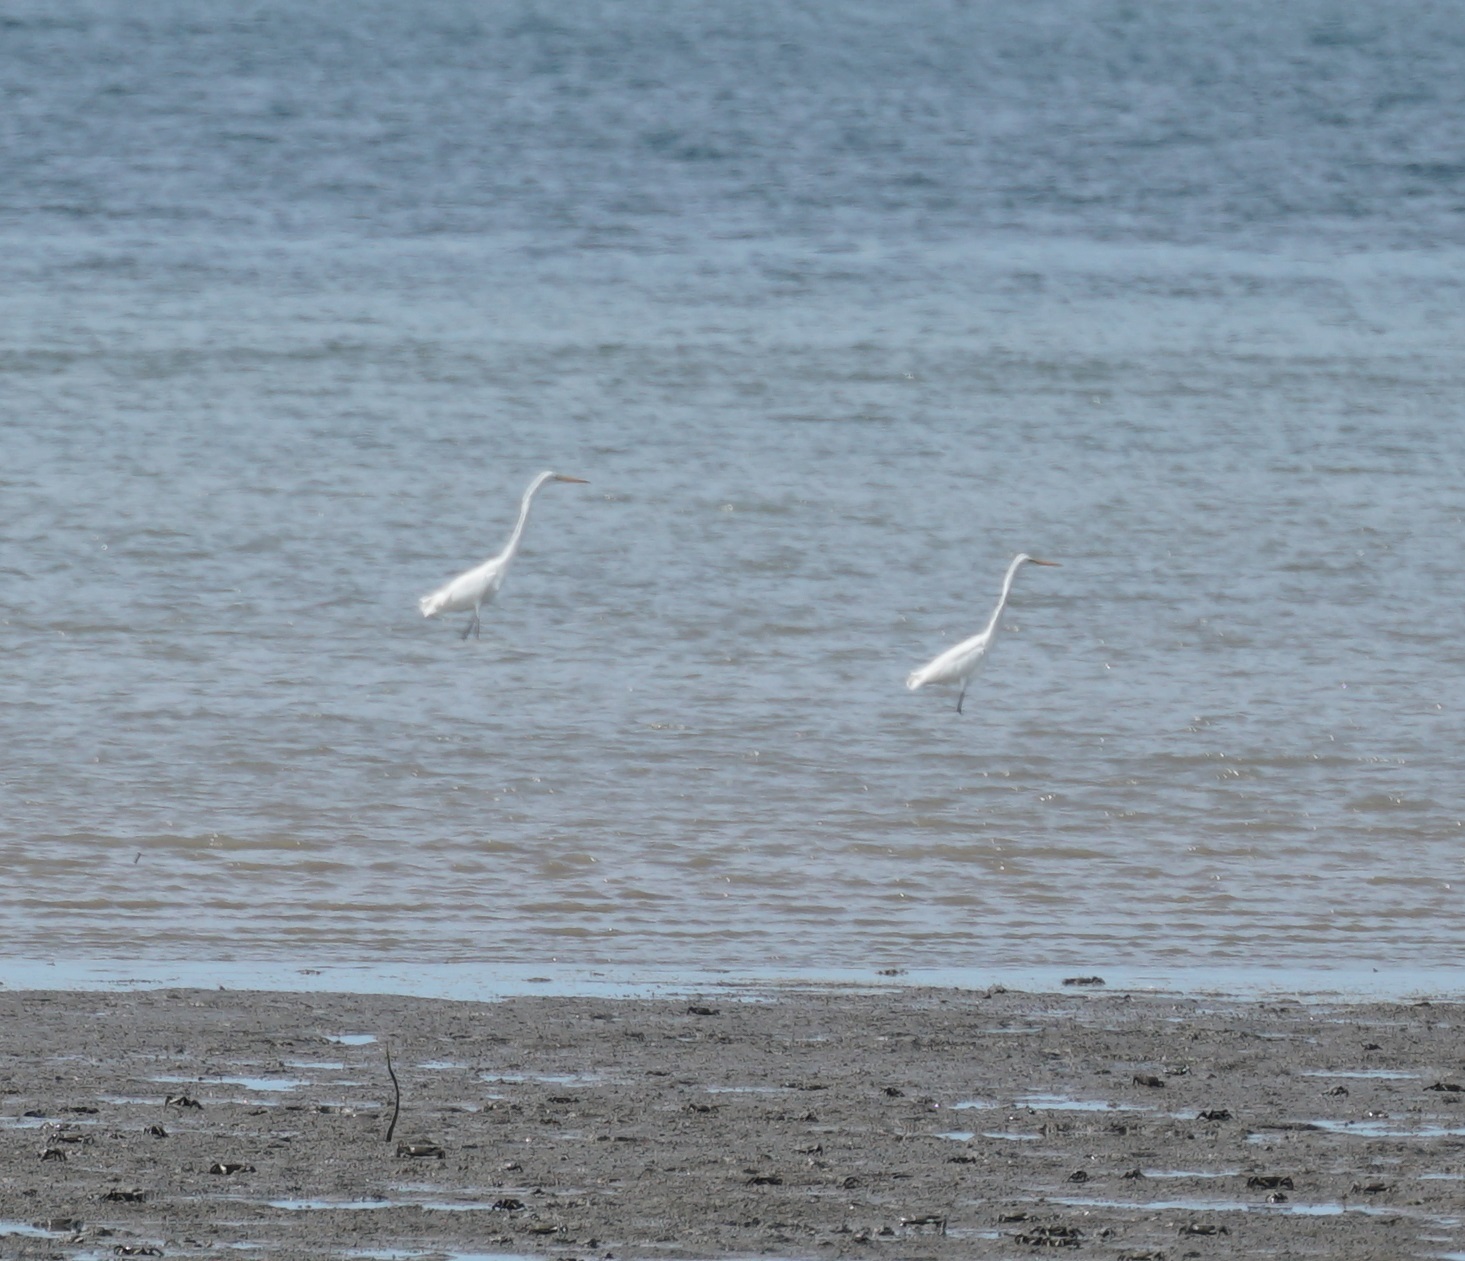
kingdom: Animalia
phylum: Chordata
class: Aves
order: Pelecaniformes
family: Ardeidae
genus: Ardea
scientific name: Ardea modesta
